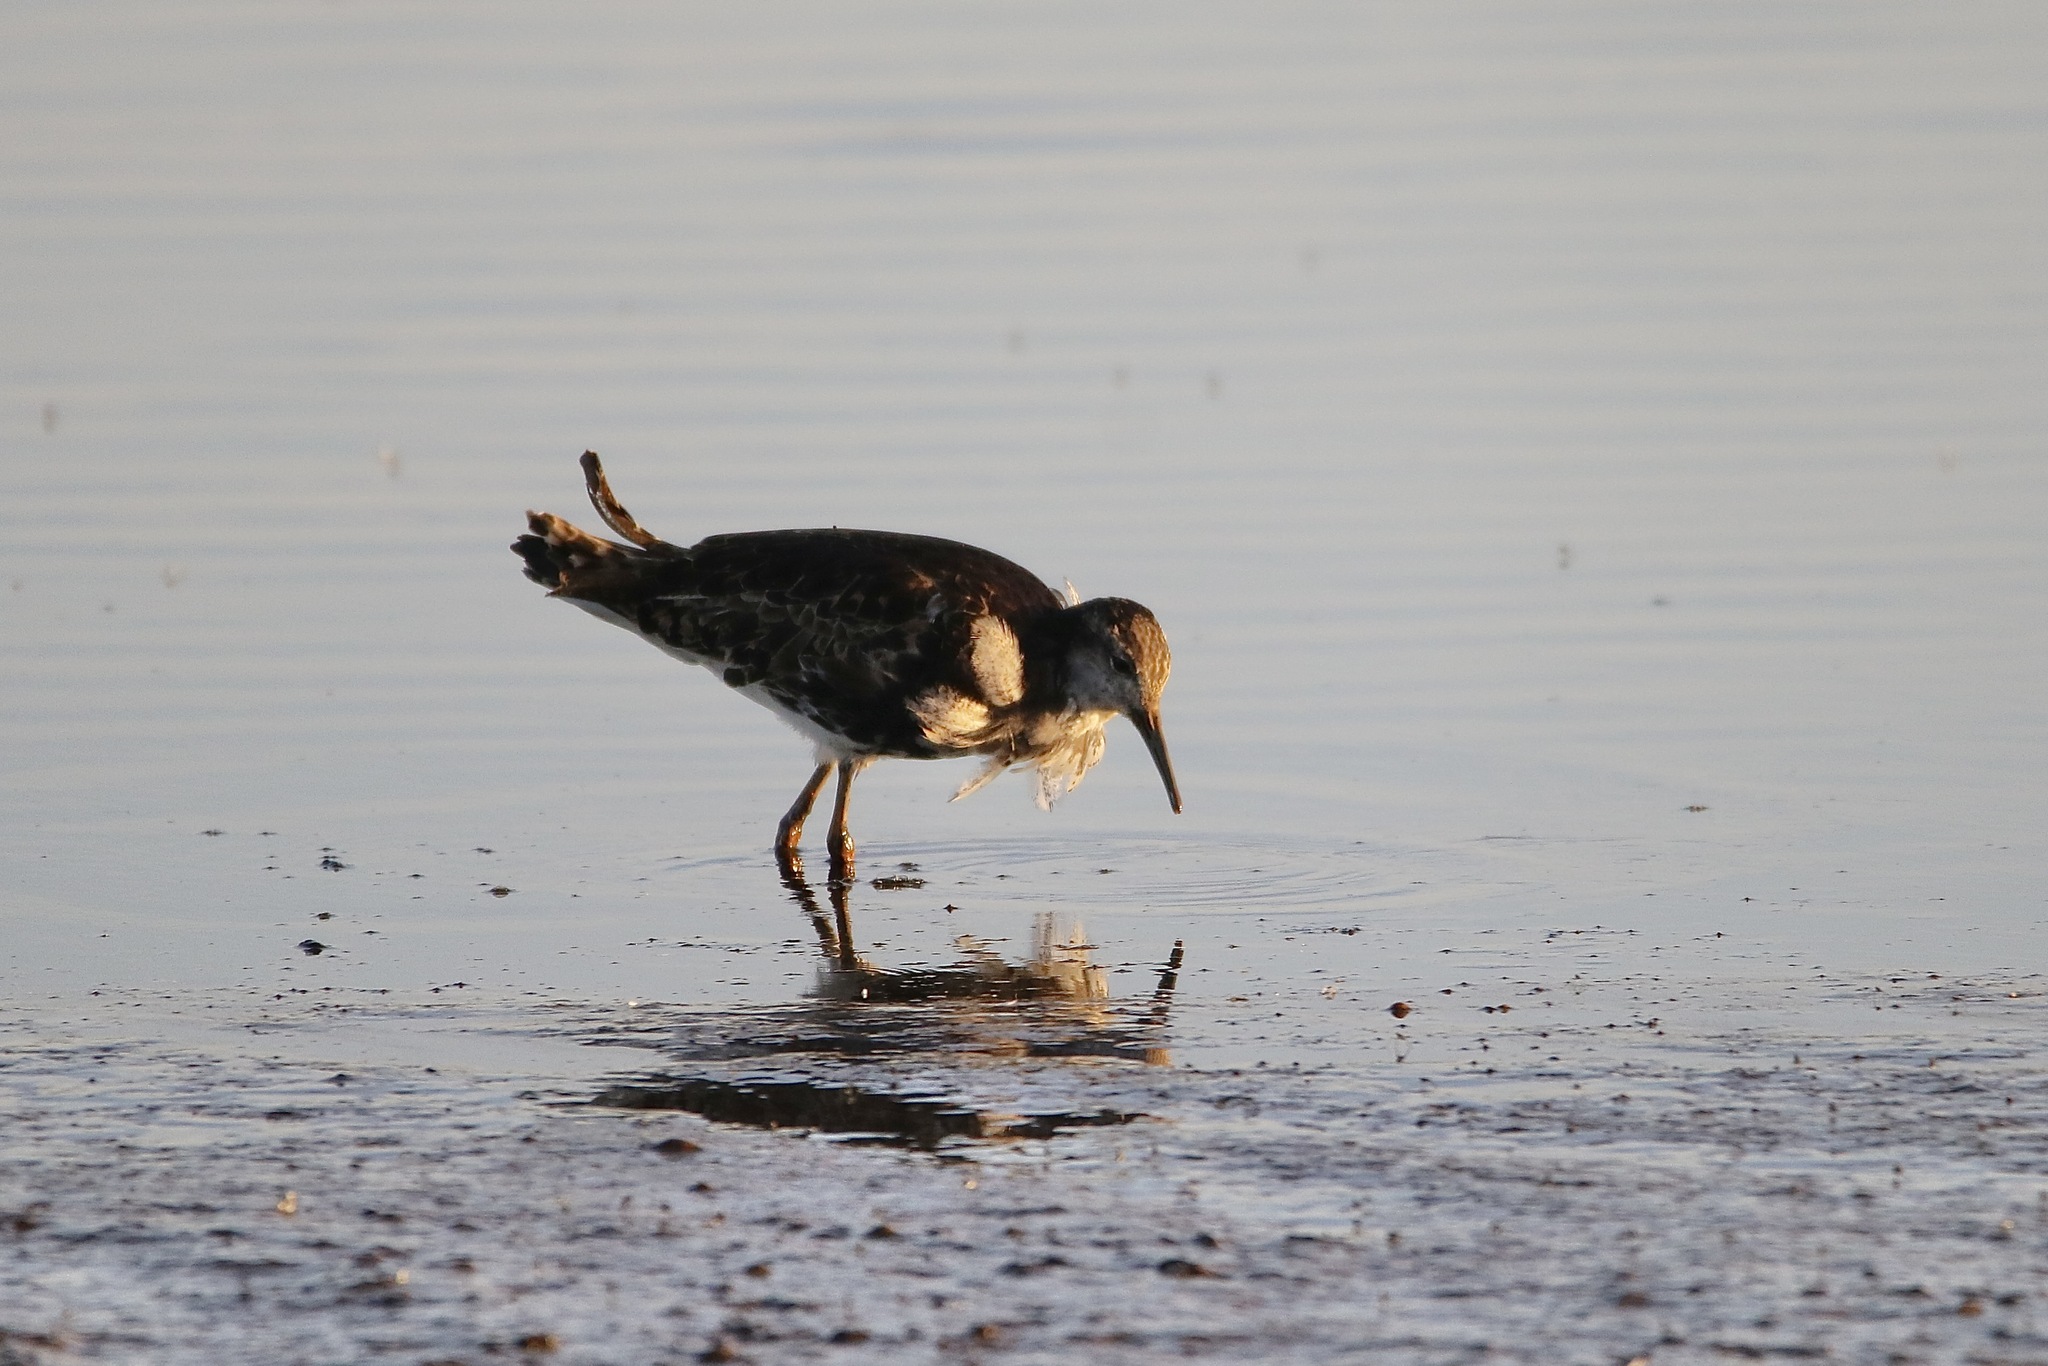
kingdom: Animalia
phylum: Chordata
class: Aves
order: Charadriiformes
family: Scolopacidae
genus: Calidris
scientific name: Calidris pugnax
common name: Ruff
